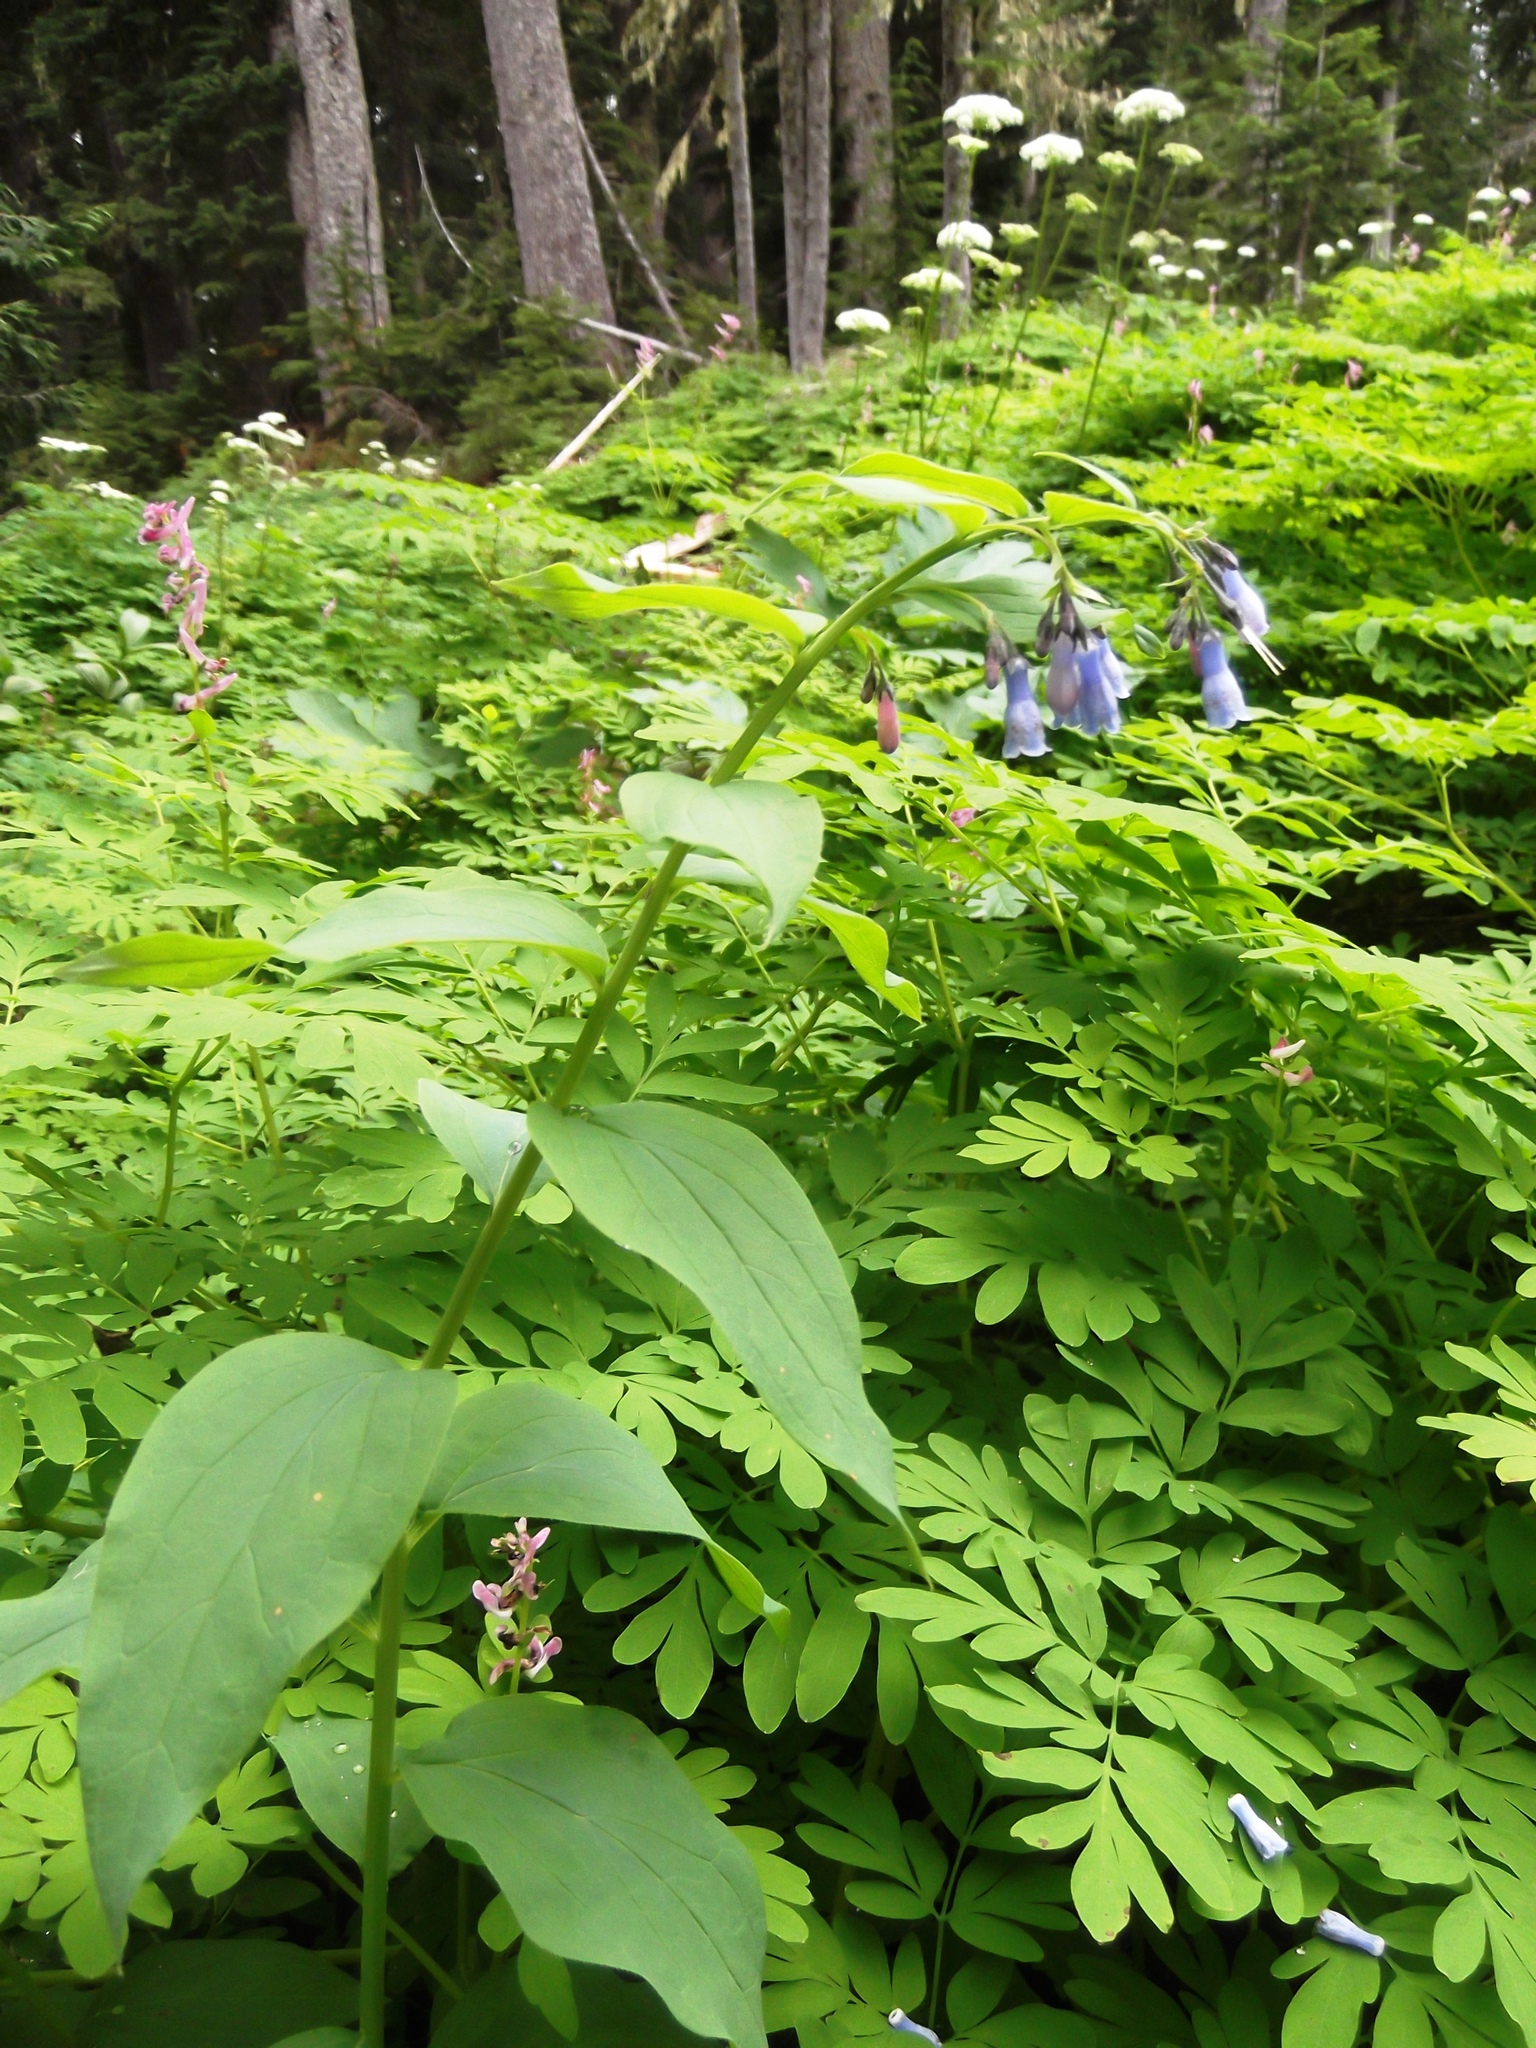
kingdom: Plantae
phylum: Tracheophyta
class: Magnoliopsida
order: Boraginales
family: Boraginaceae
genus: Mertensia
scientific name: Mertensia paniculata
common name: Panicled bluebells
